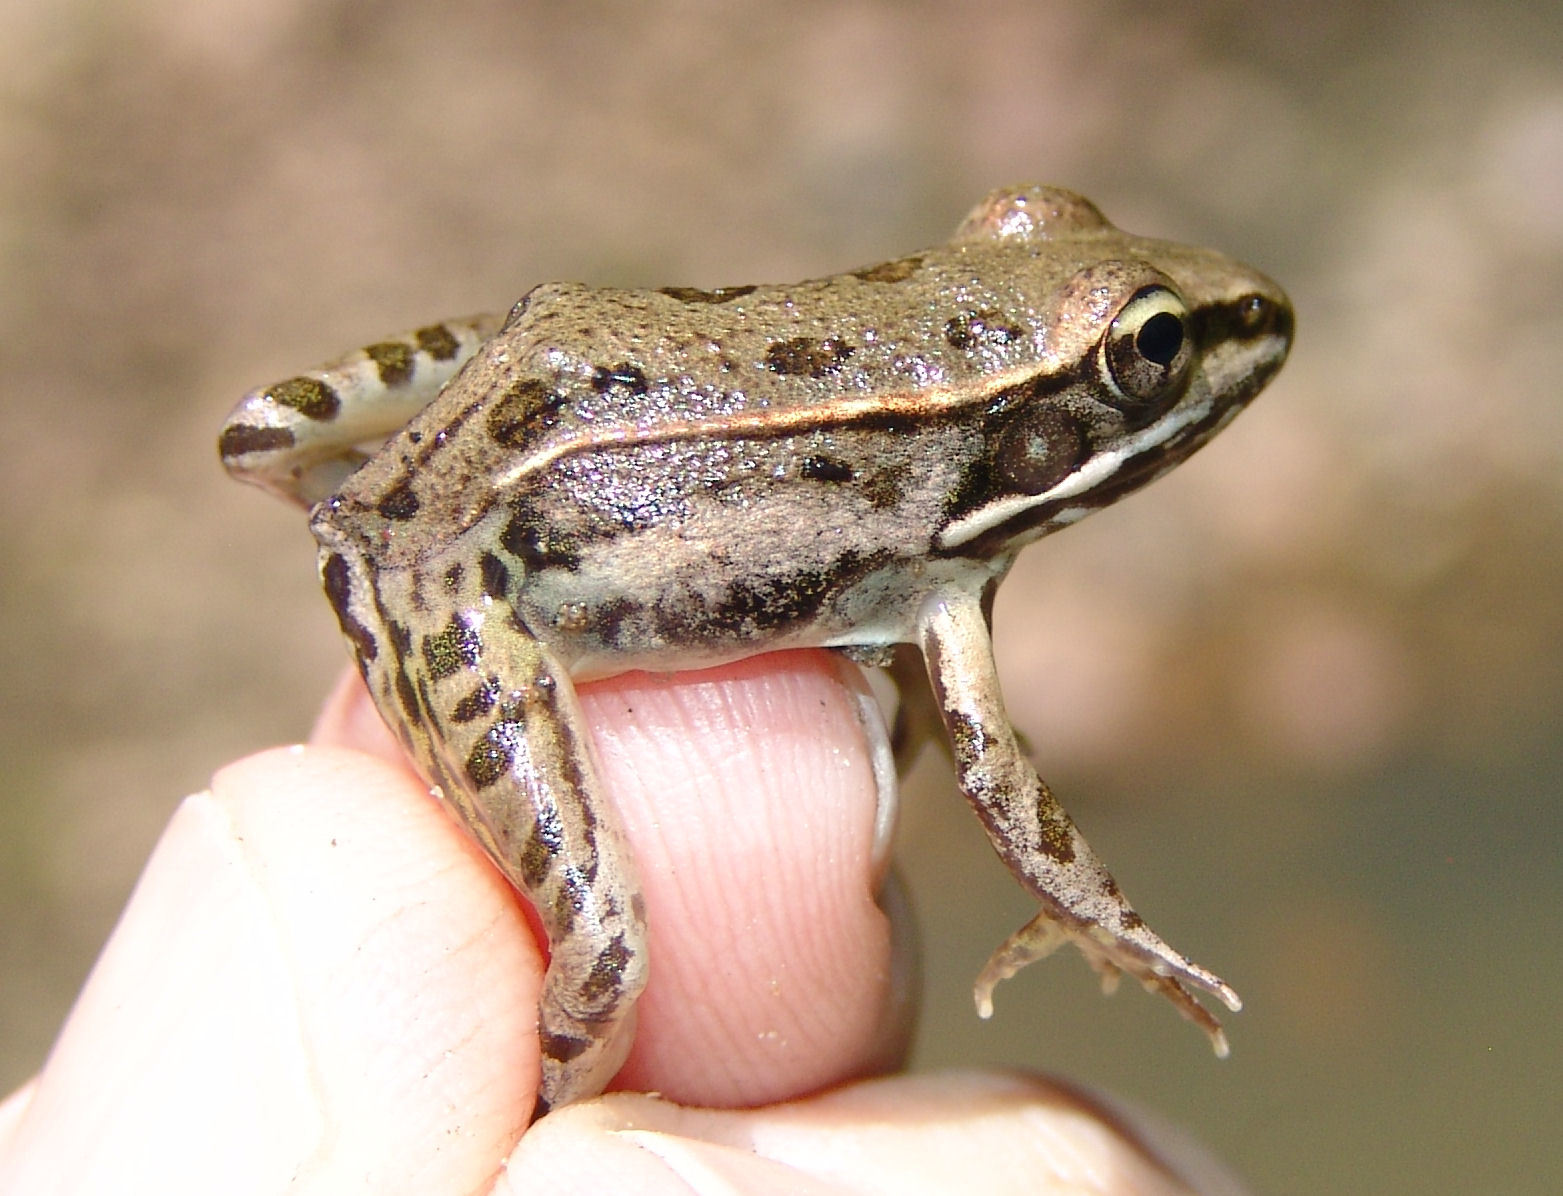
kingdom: Animalia
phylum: Chordata
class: Amphibia
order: Anura
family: Ranidae
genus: Lithobates
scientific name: Lithobates sphenocephalus
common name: Southern leopard frog
